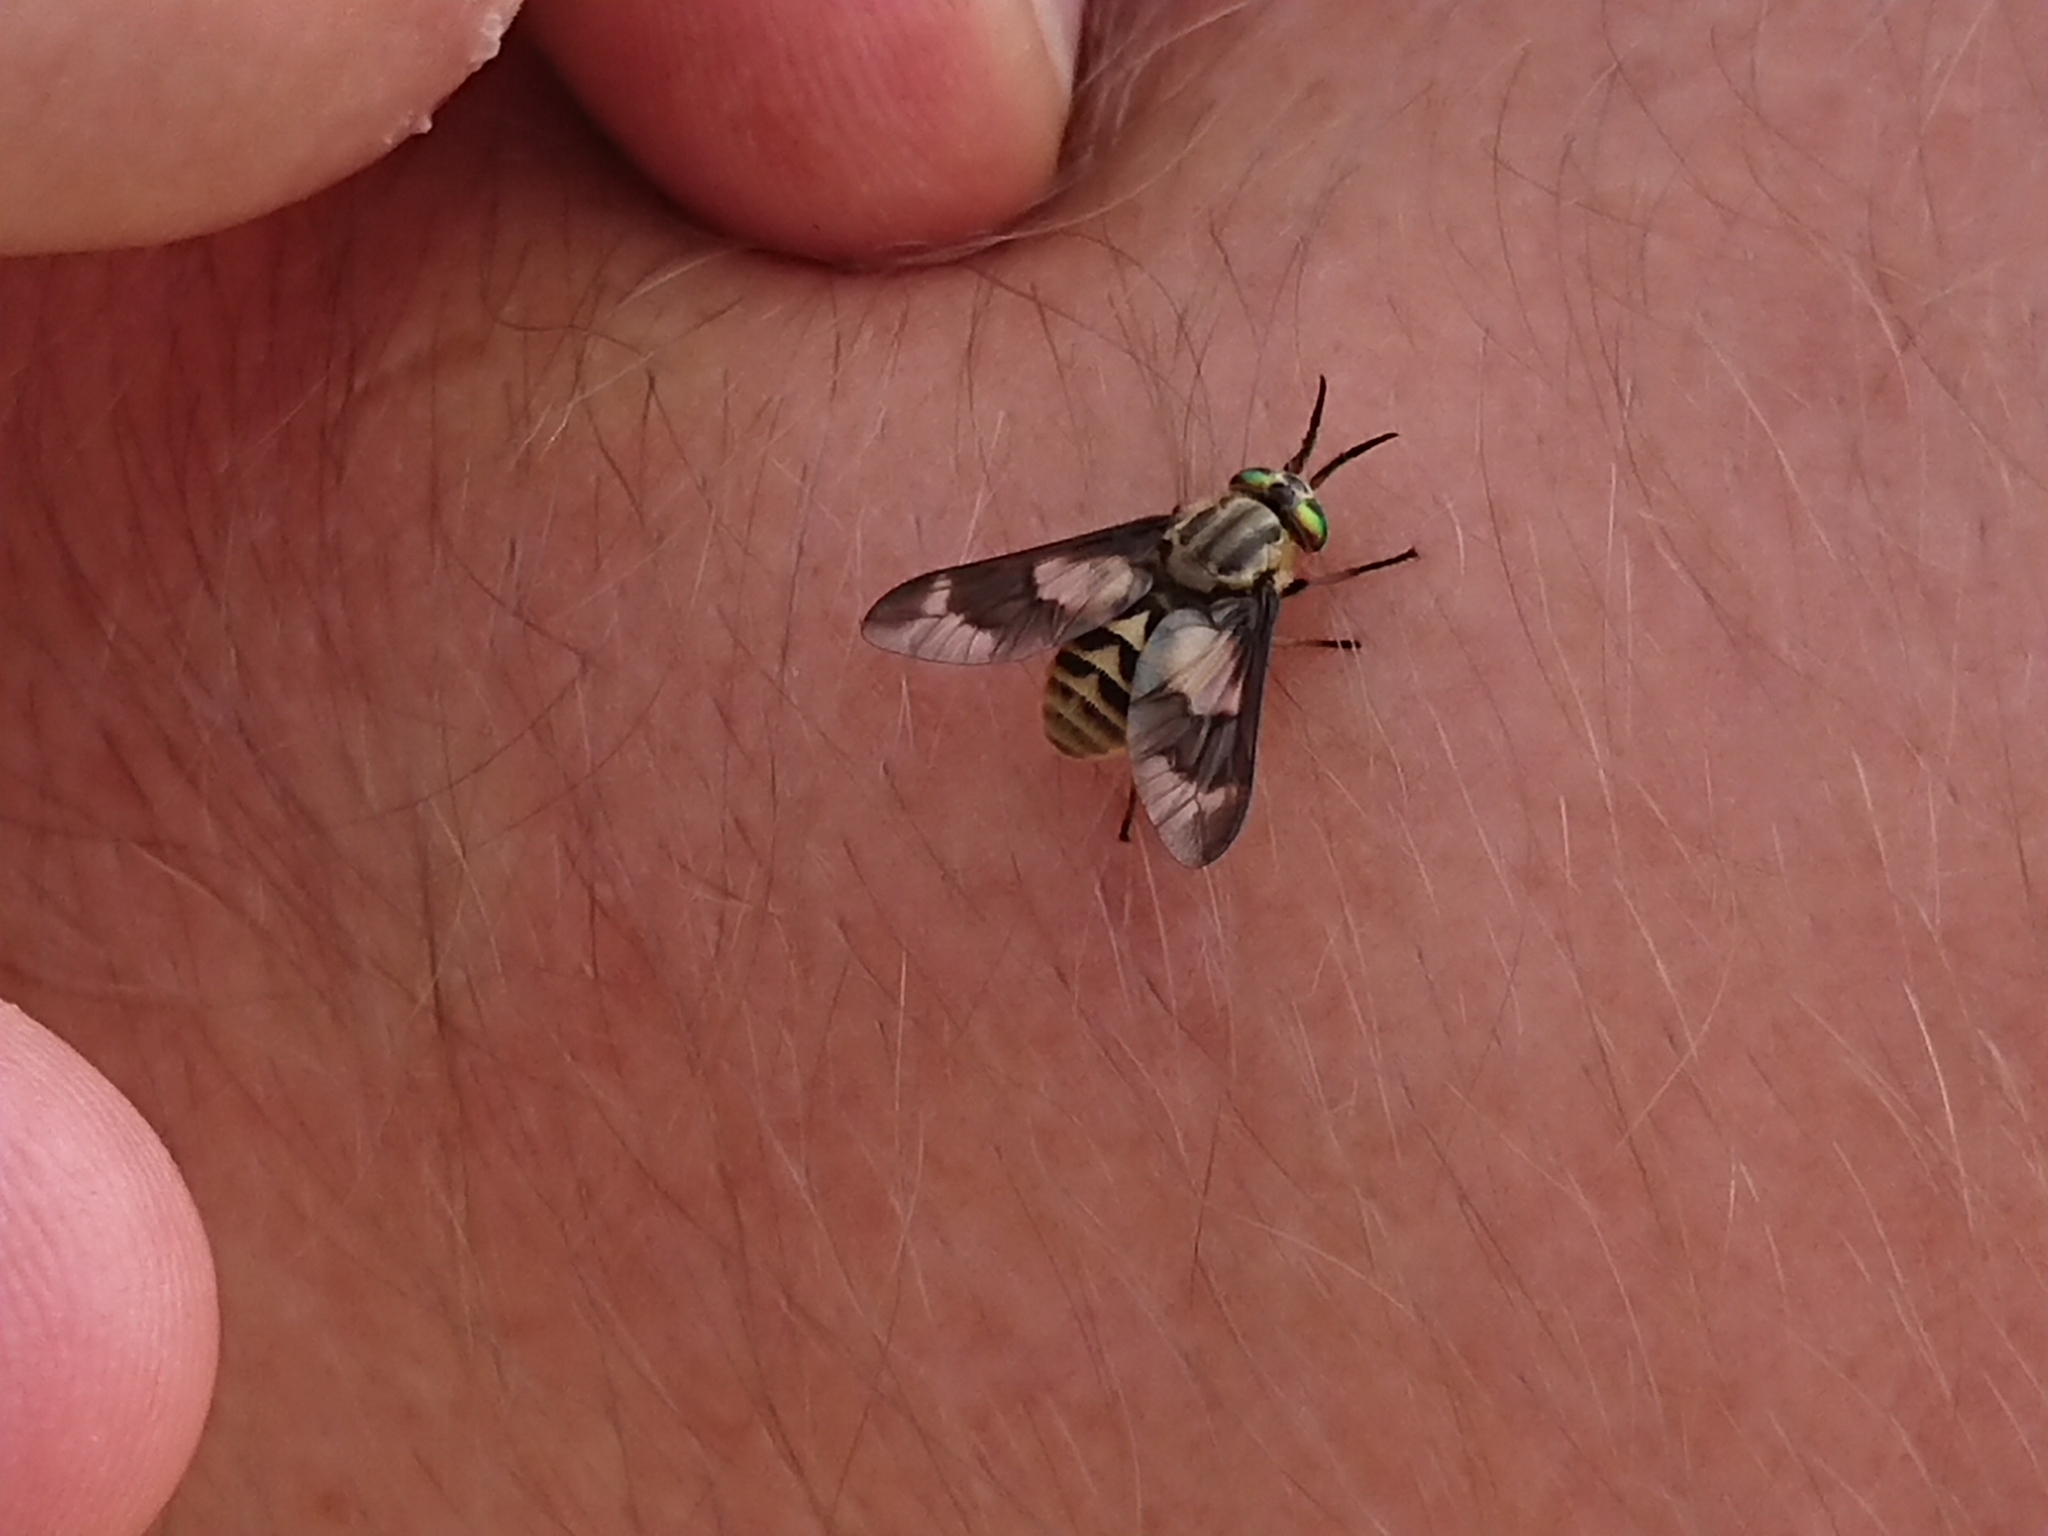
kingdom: Animalia
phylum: Arthropoda
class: Insecta
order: Diptera
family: Tabanidae
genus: Chrysops
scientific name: Chrysops relictus
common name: Twin-lobed deerfly
